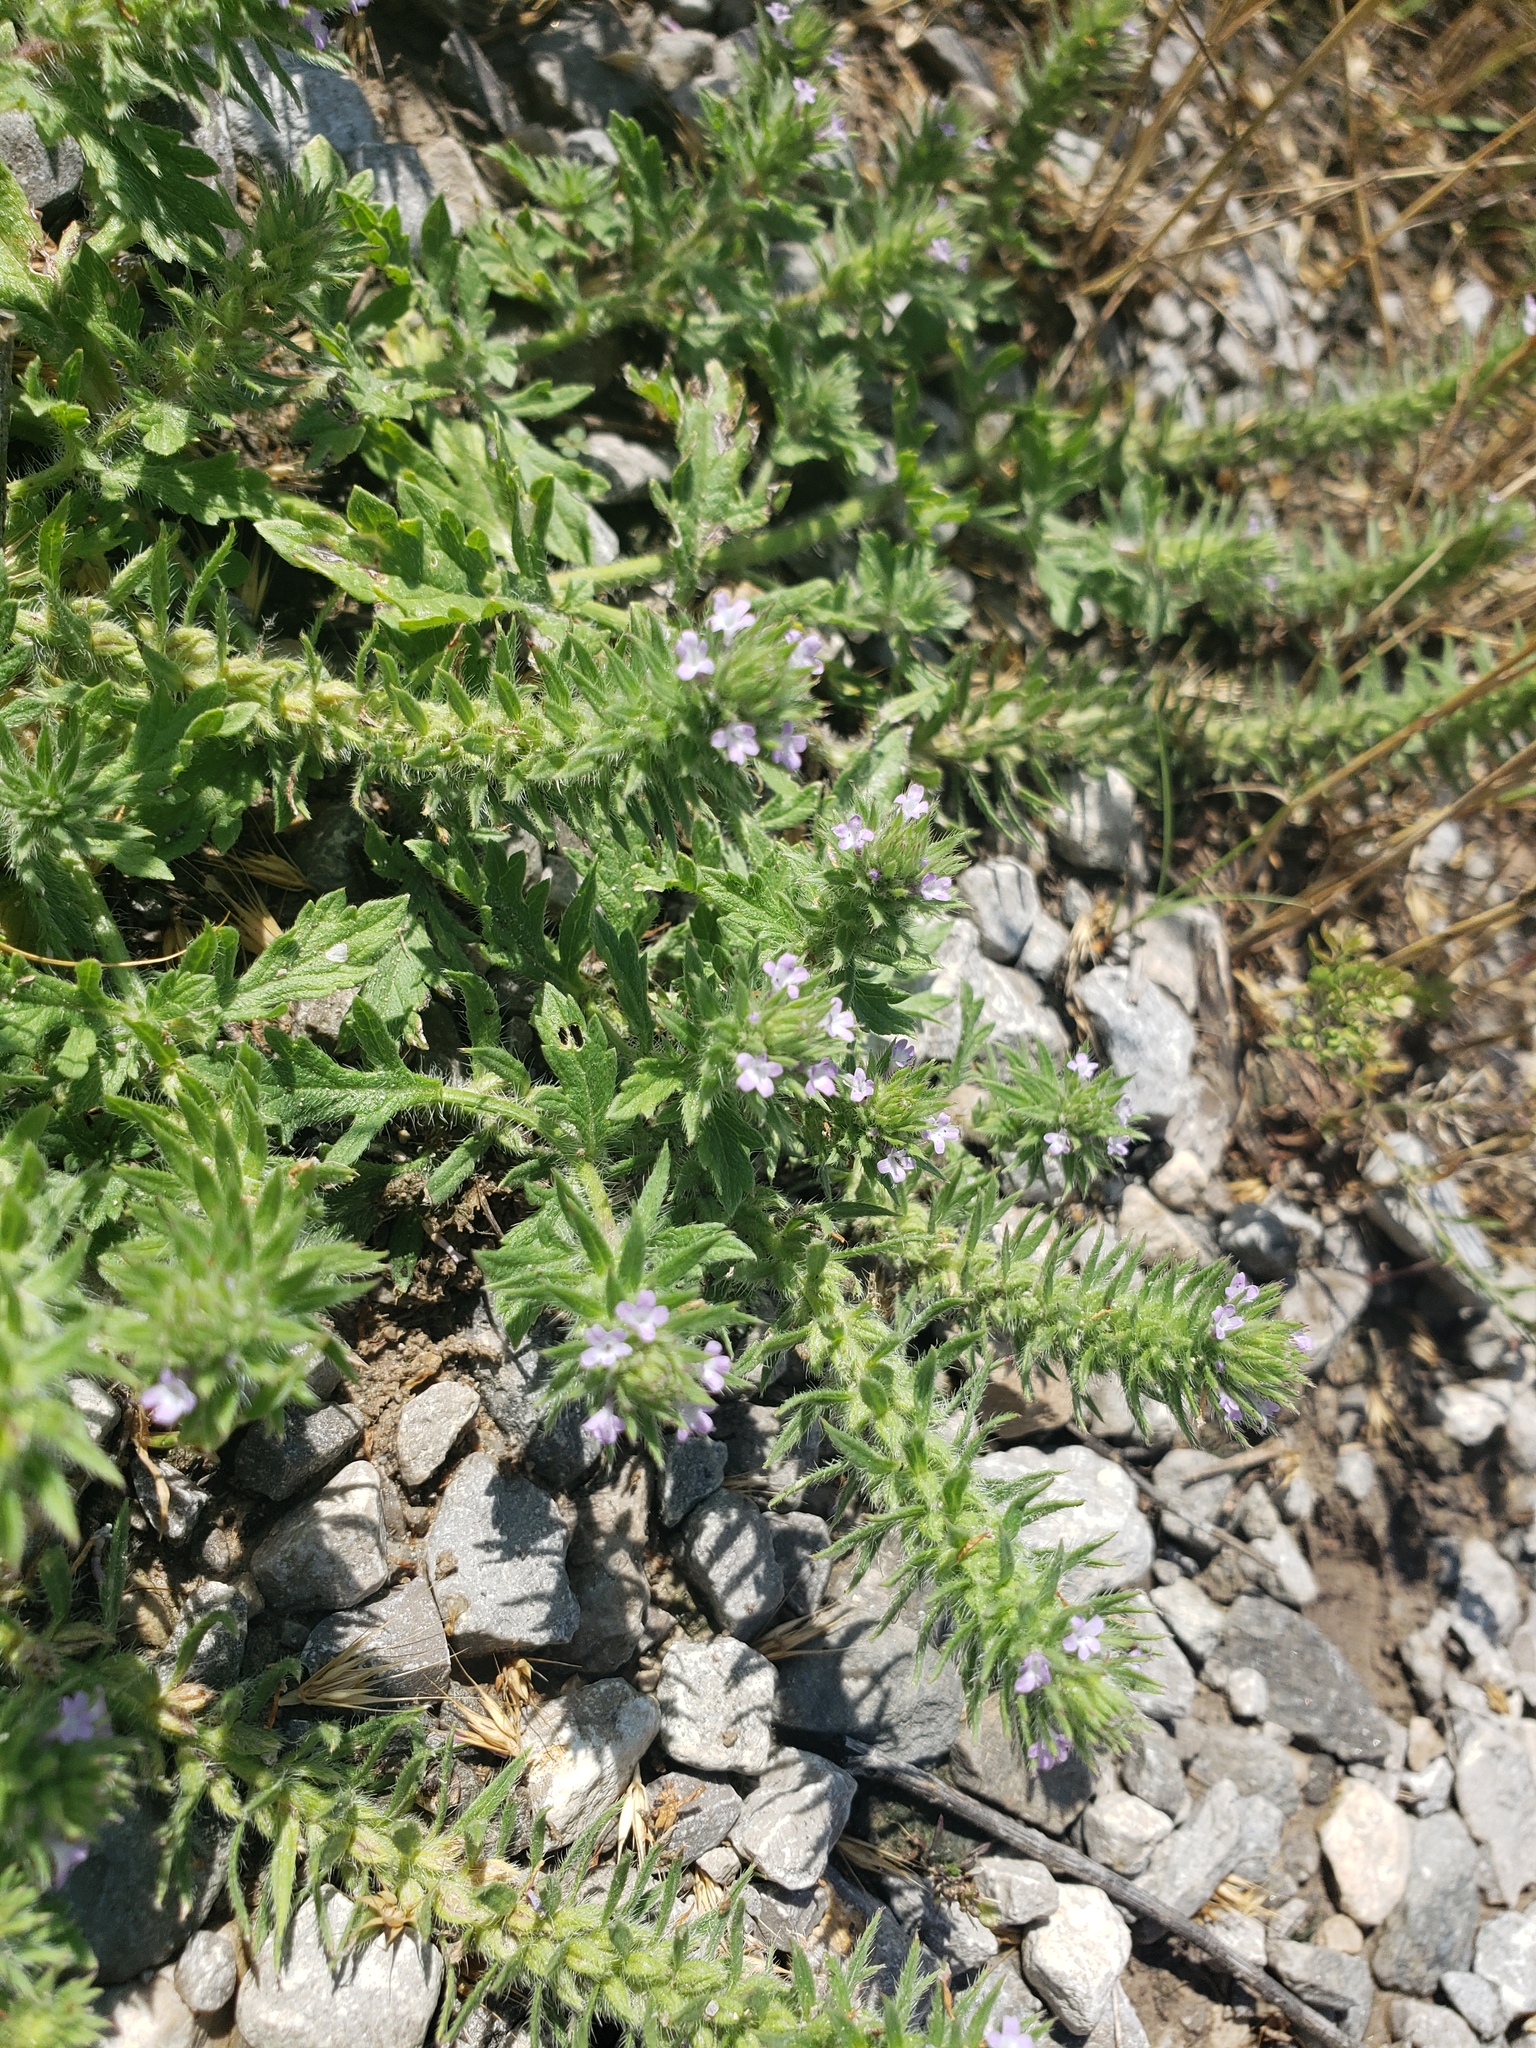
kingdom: Plantae
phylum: Tracheophyta
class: Magnoliopsida
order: Lamiales
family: Verbenaceae
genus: Verbena
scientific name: Verbena bracteata
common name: Bracted vervain
